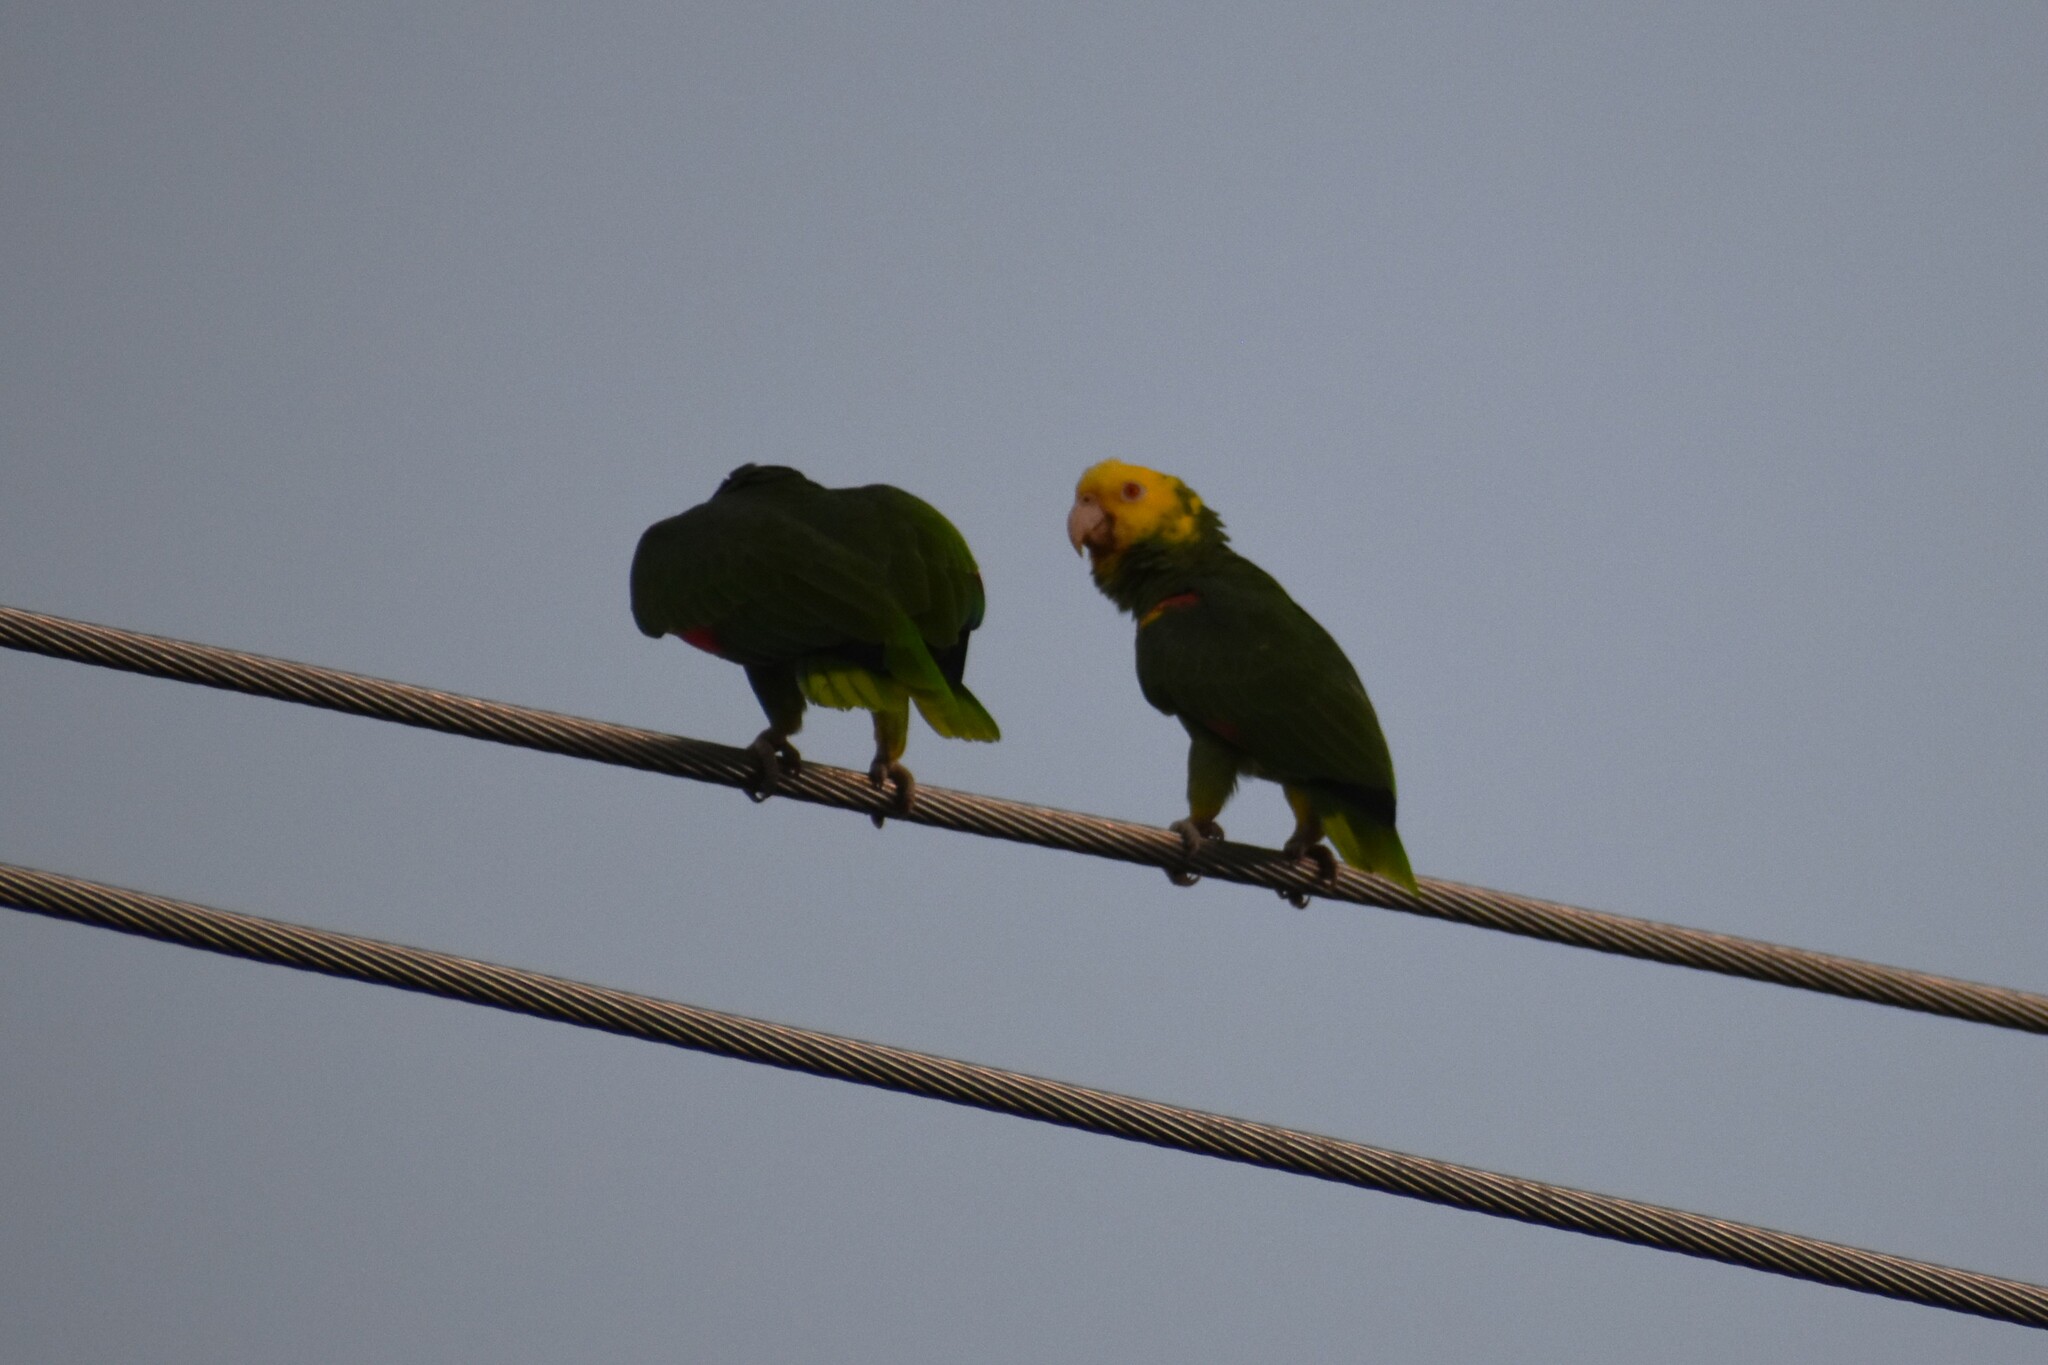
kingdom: Animalia
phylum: Chordata
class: Aves
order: Psittaciformes
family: Psittacidae
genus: Amazona
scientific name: Amazona oratrix
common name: Yellow-headed amazon
